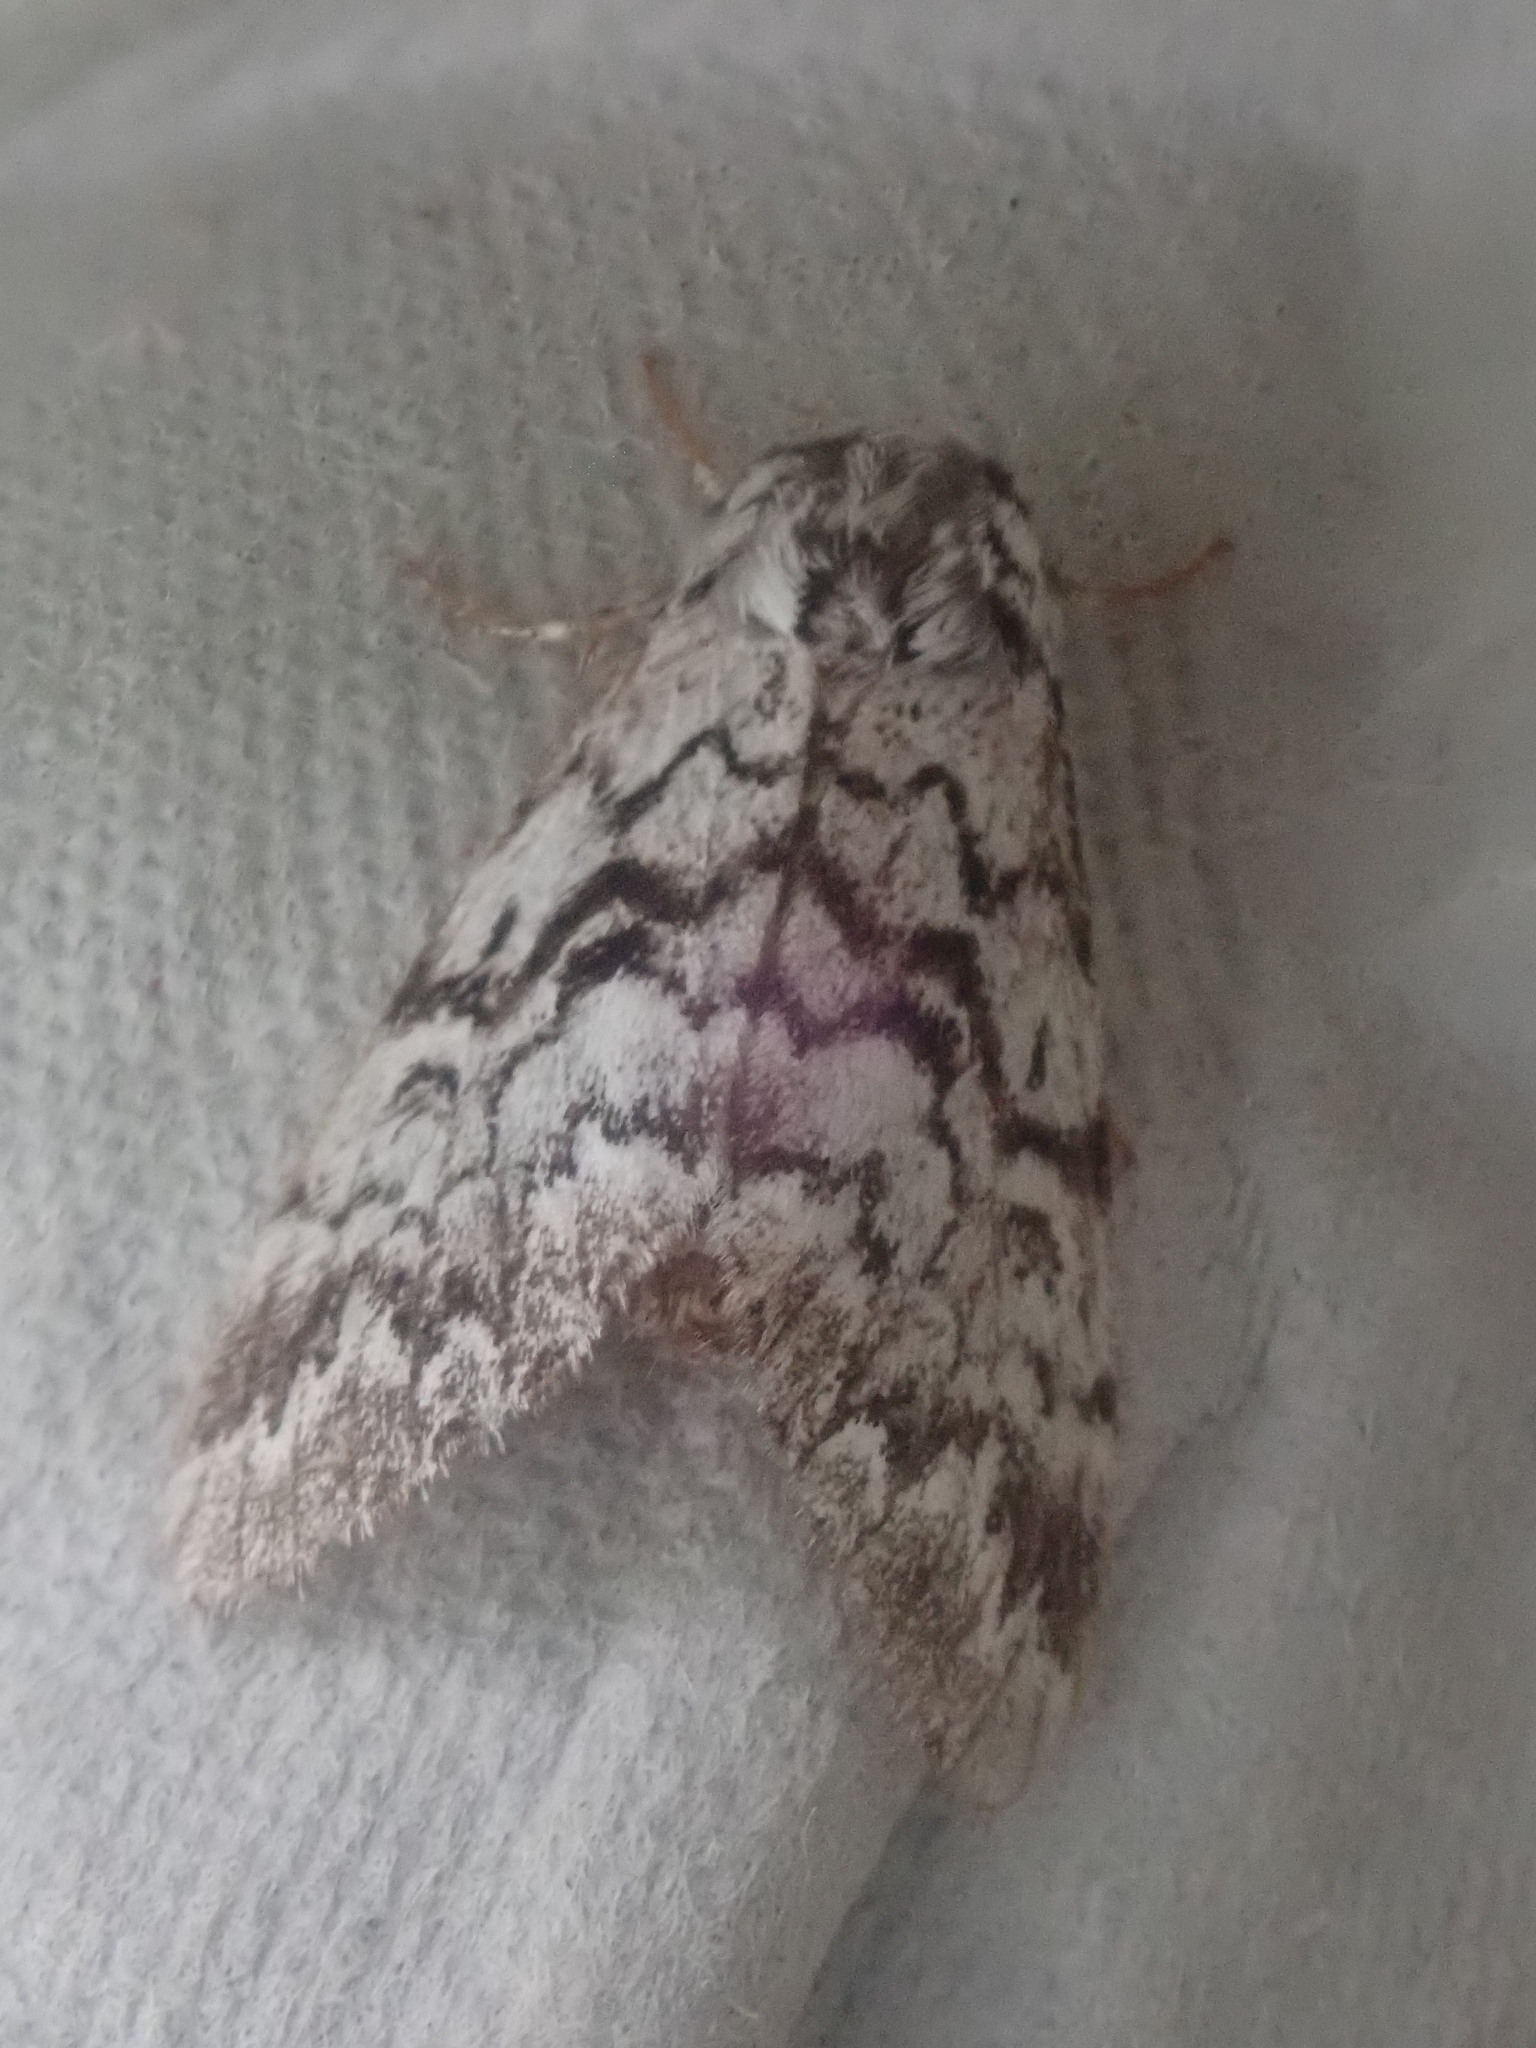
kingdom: Animalia
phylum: Arthropoda
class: Insecta
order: Lepidoptera
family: Noctuidae
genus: Panthea
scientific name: Panthea acronyctoides
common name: Black zigzag moth
